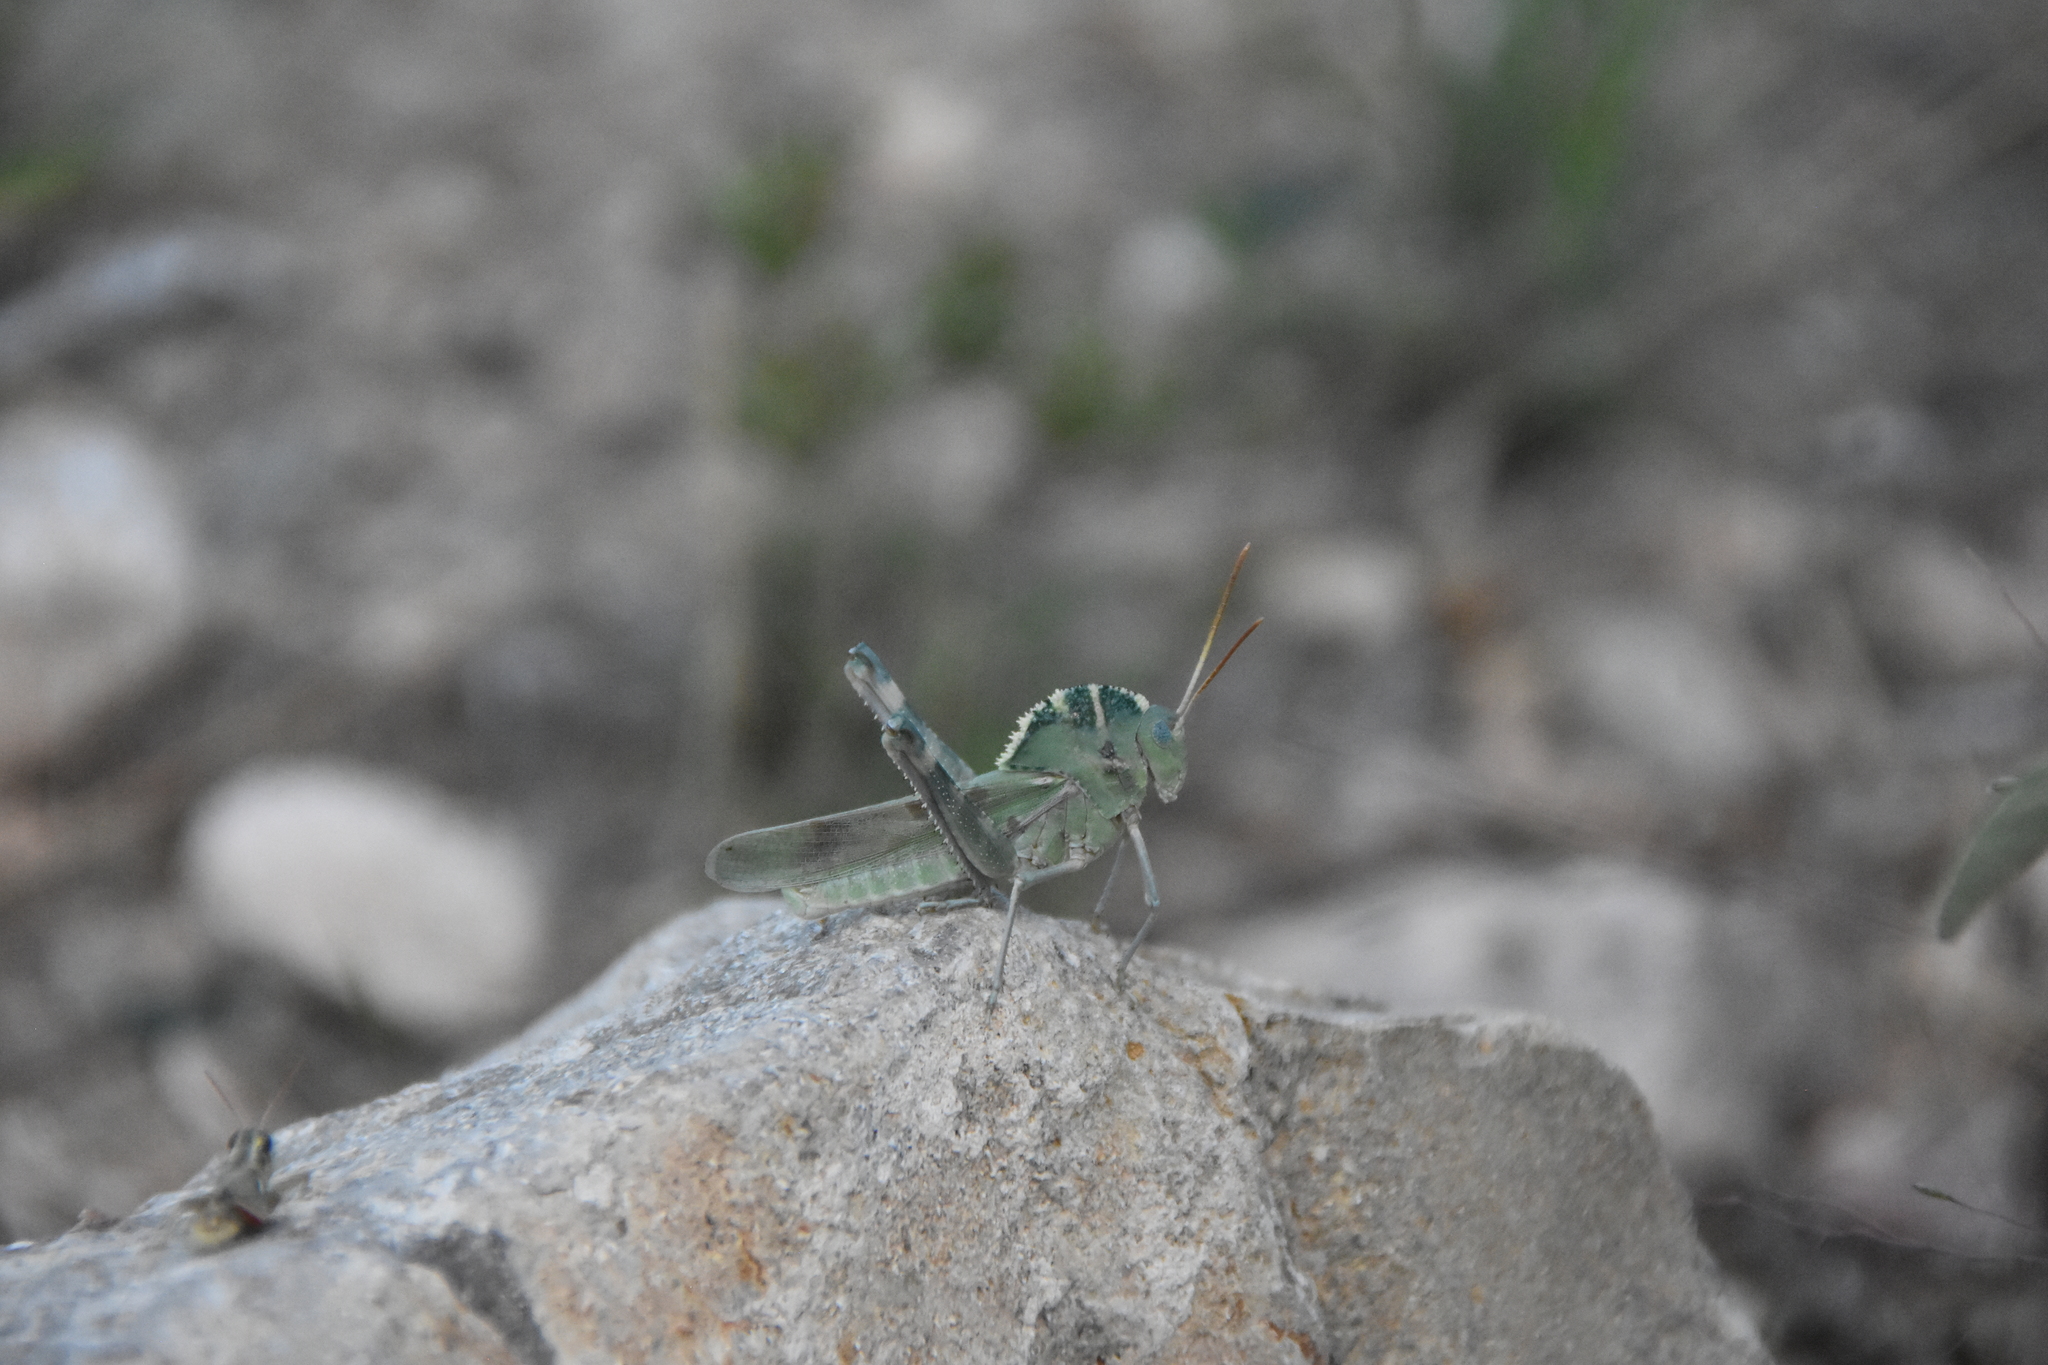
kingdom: Animalia
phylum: Arthropoda
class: Insecta
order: Orthoptera
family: Acrididae
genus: Tropidolophus
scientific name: Tropidolophus formosus
